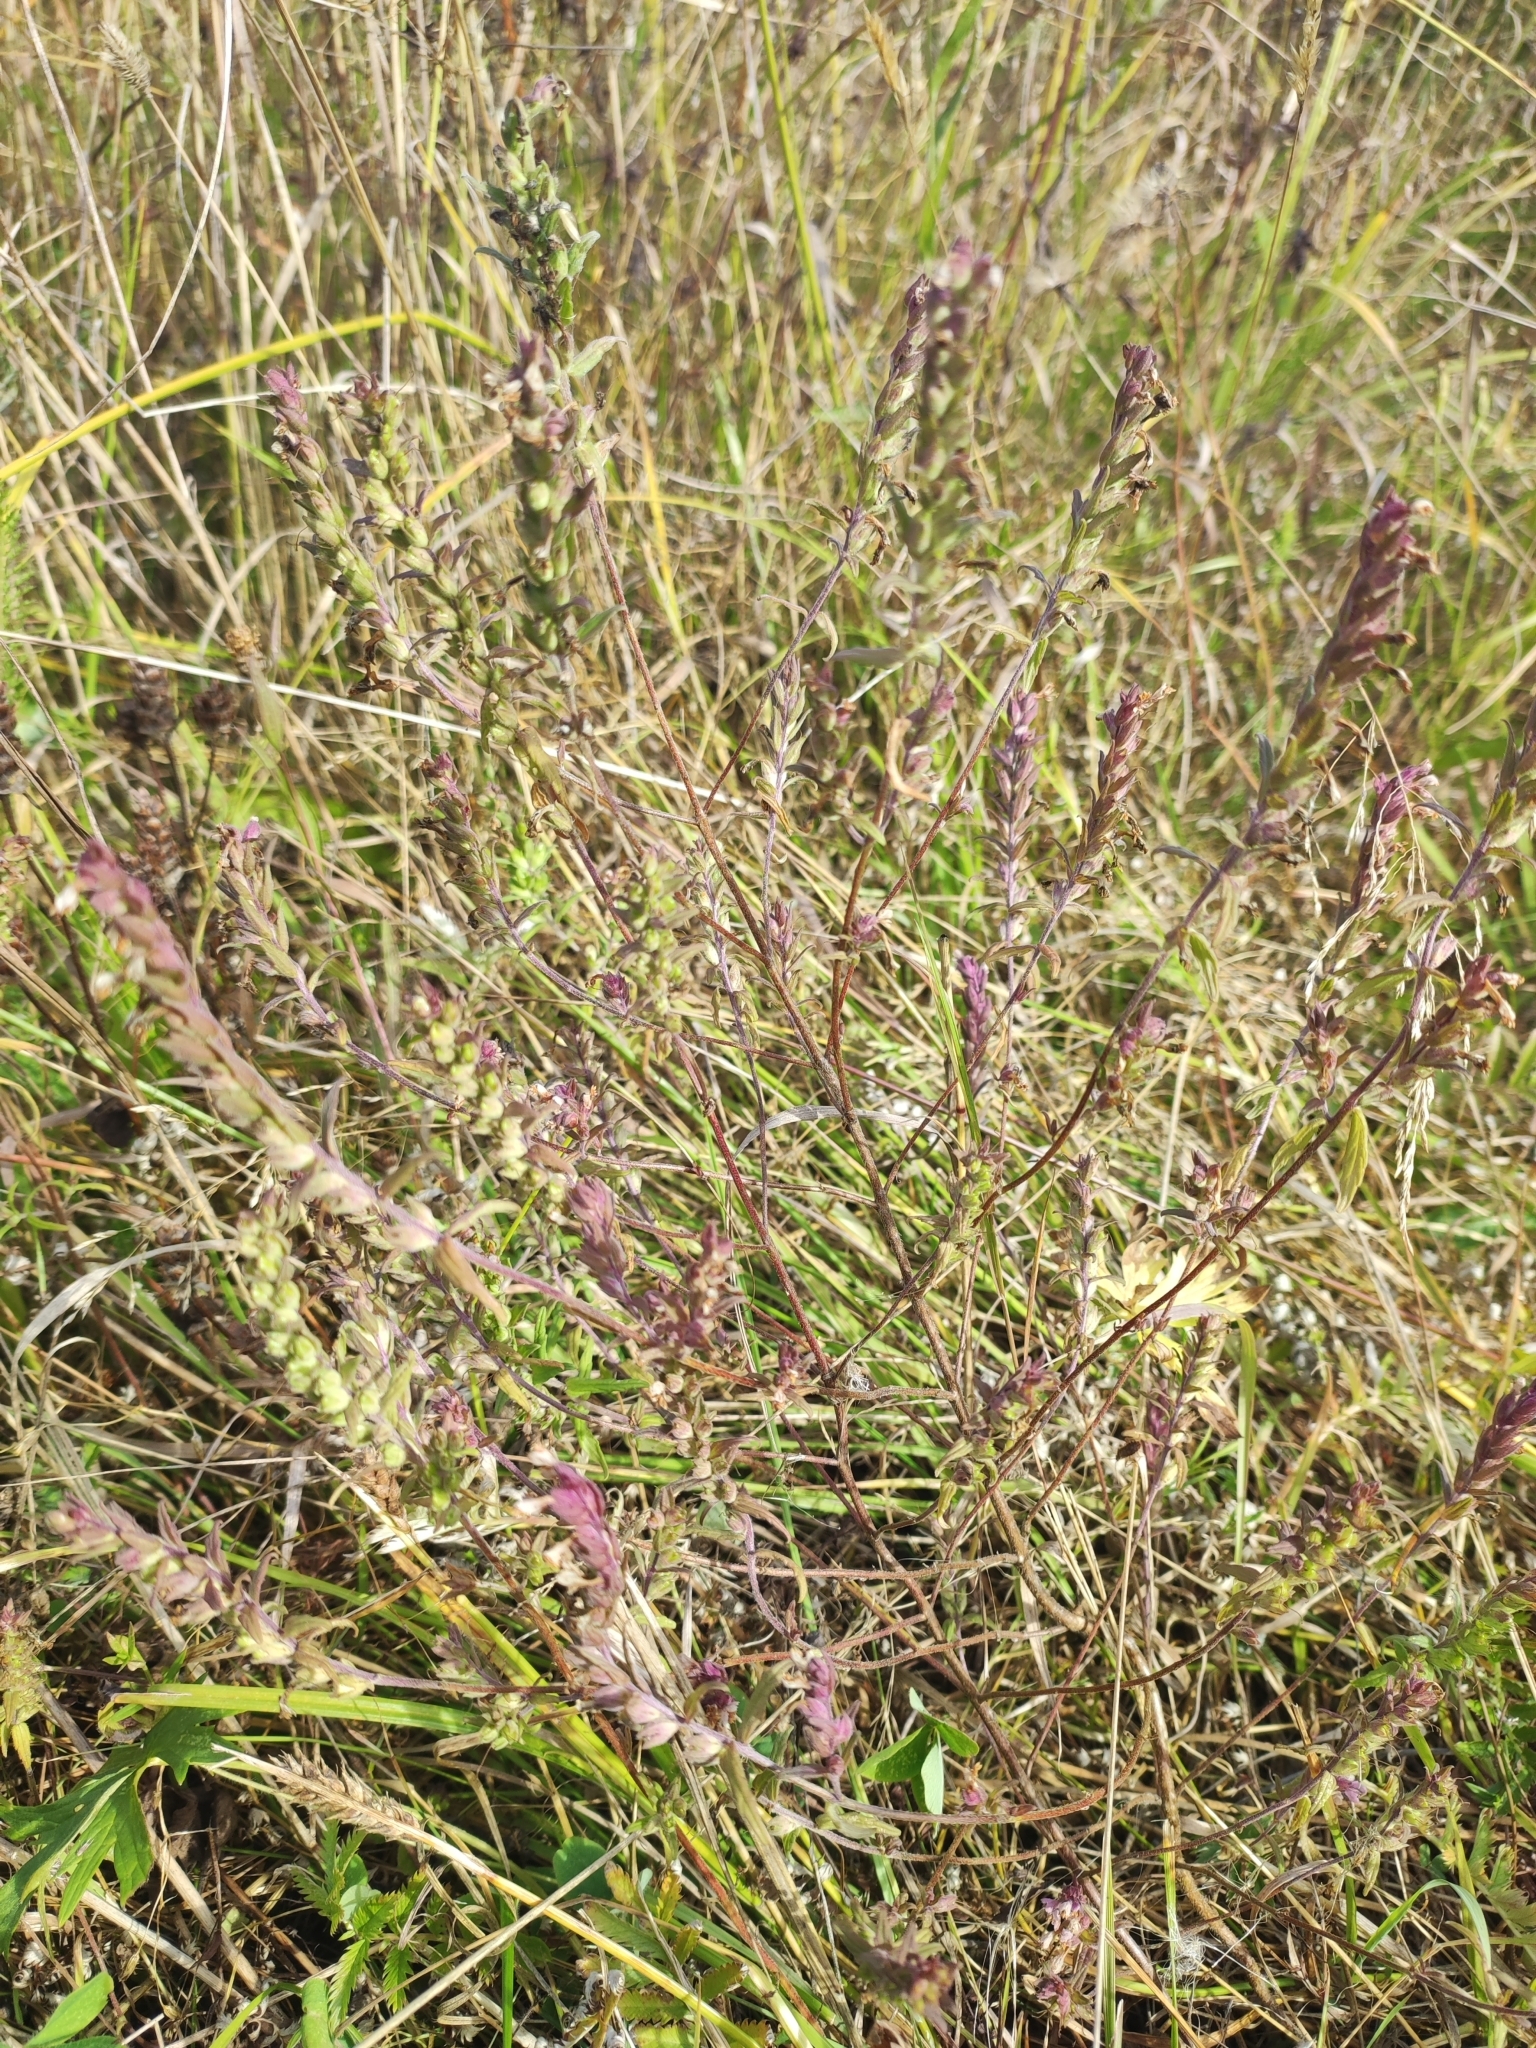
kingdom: Plantae
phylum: Tracheophyta
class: Magnoliopsida
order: Lamiales
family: Orobanchaceae
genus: Odontites
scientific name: Odontites vulgaris
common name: Broomrape
